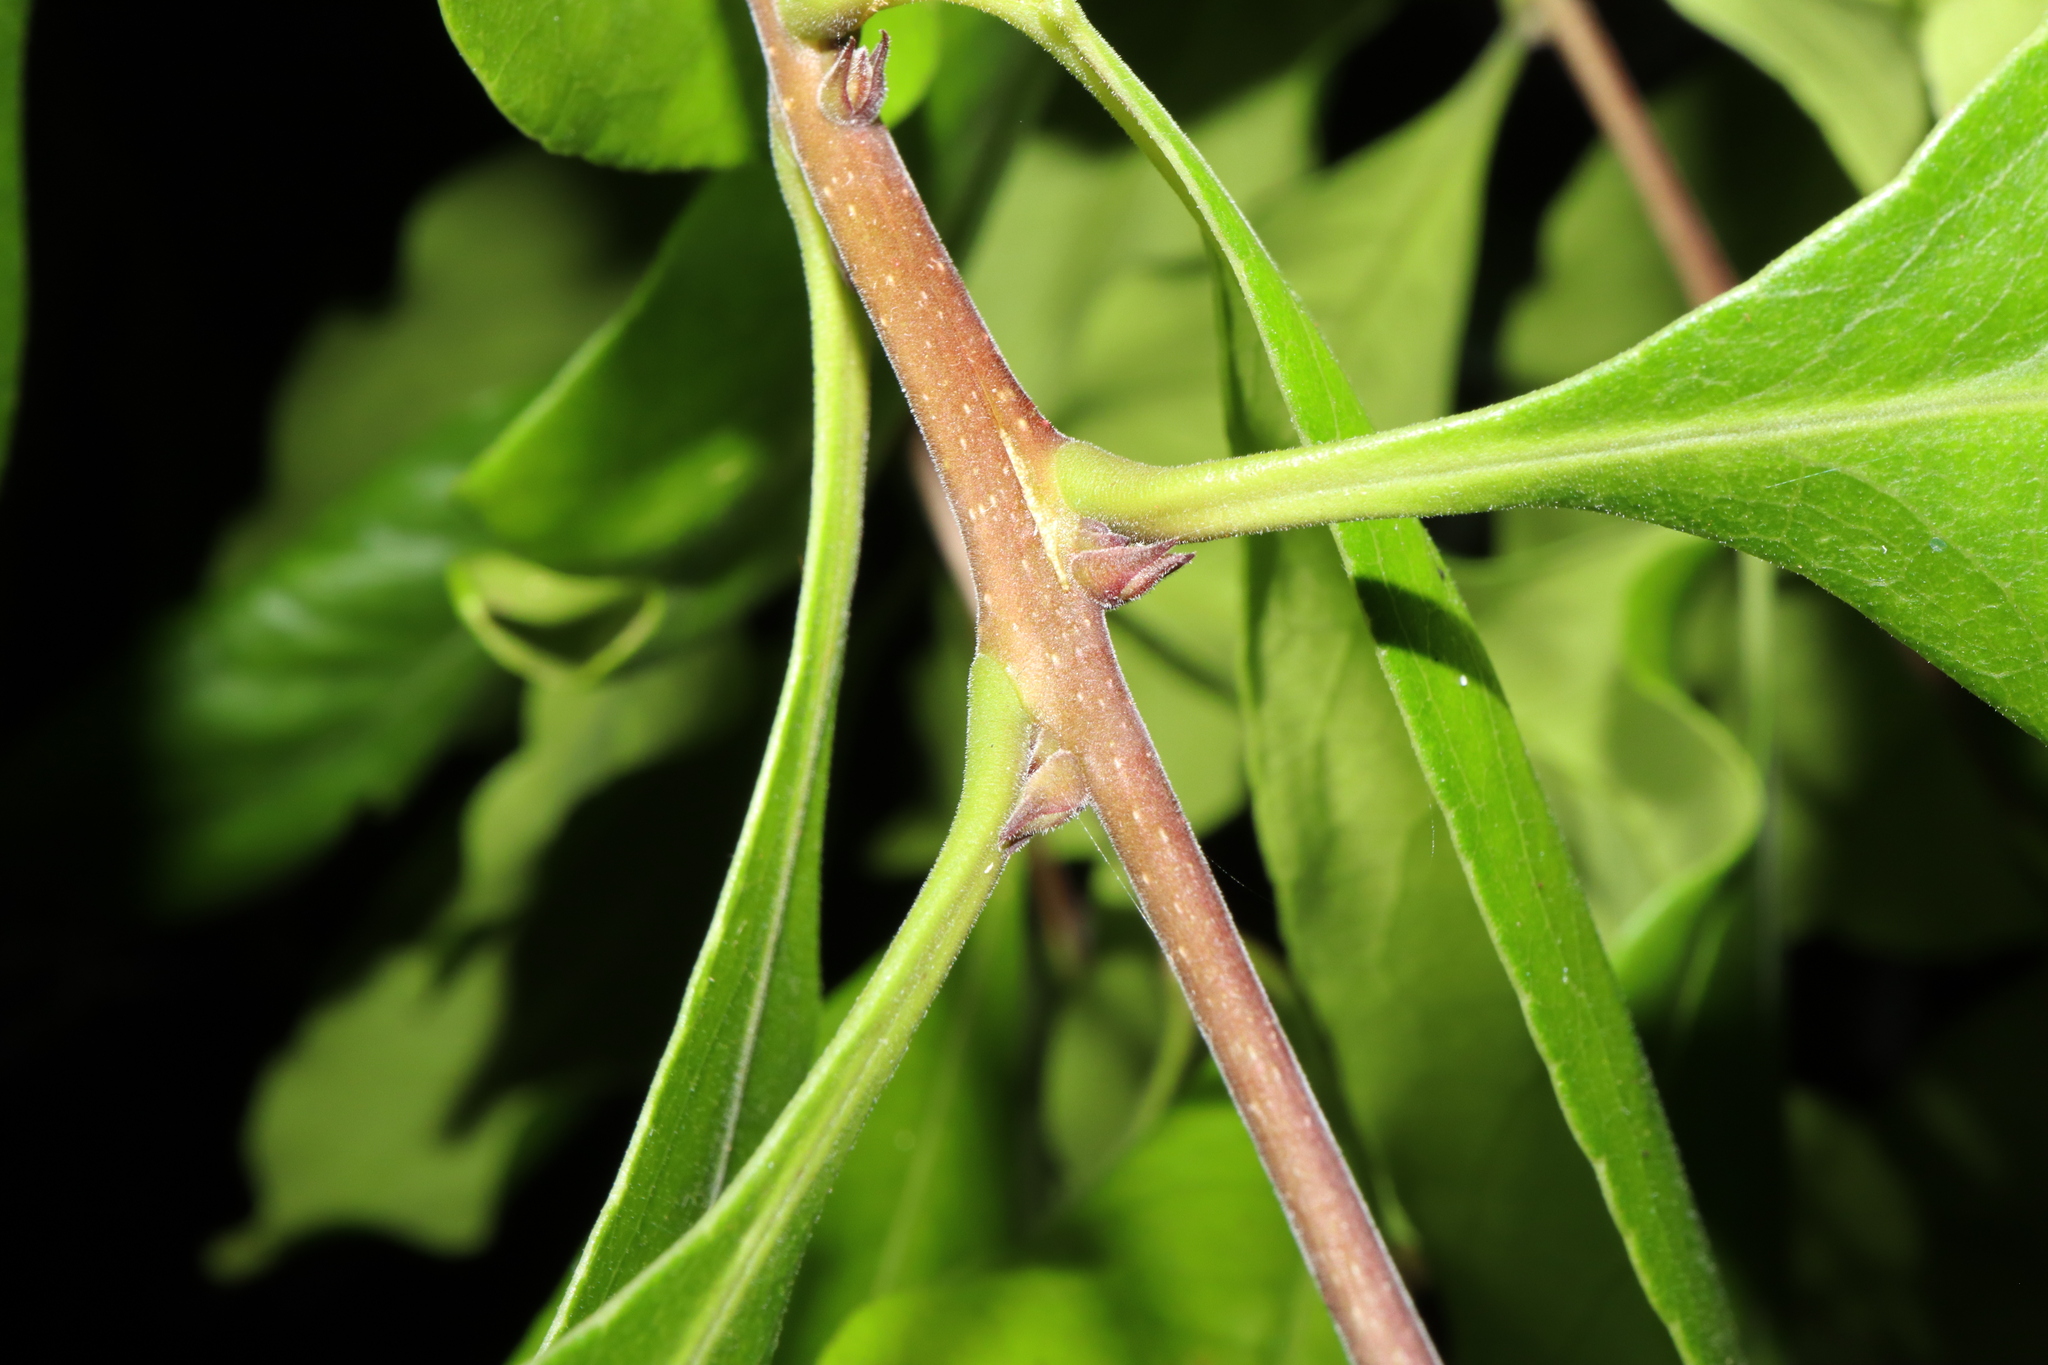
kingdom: Plantae
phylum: Tracheophyta
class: Magnoliopsida
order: Lamiales
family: Oleaceae
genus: Notelaea
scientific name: Notelaea longifolia
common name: Large mock olive
